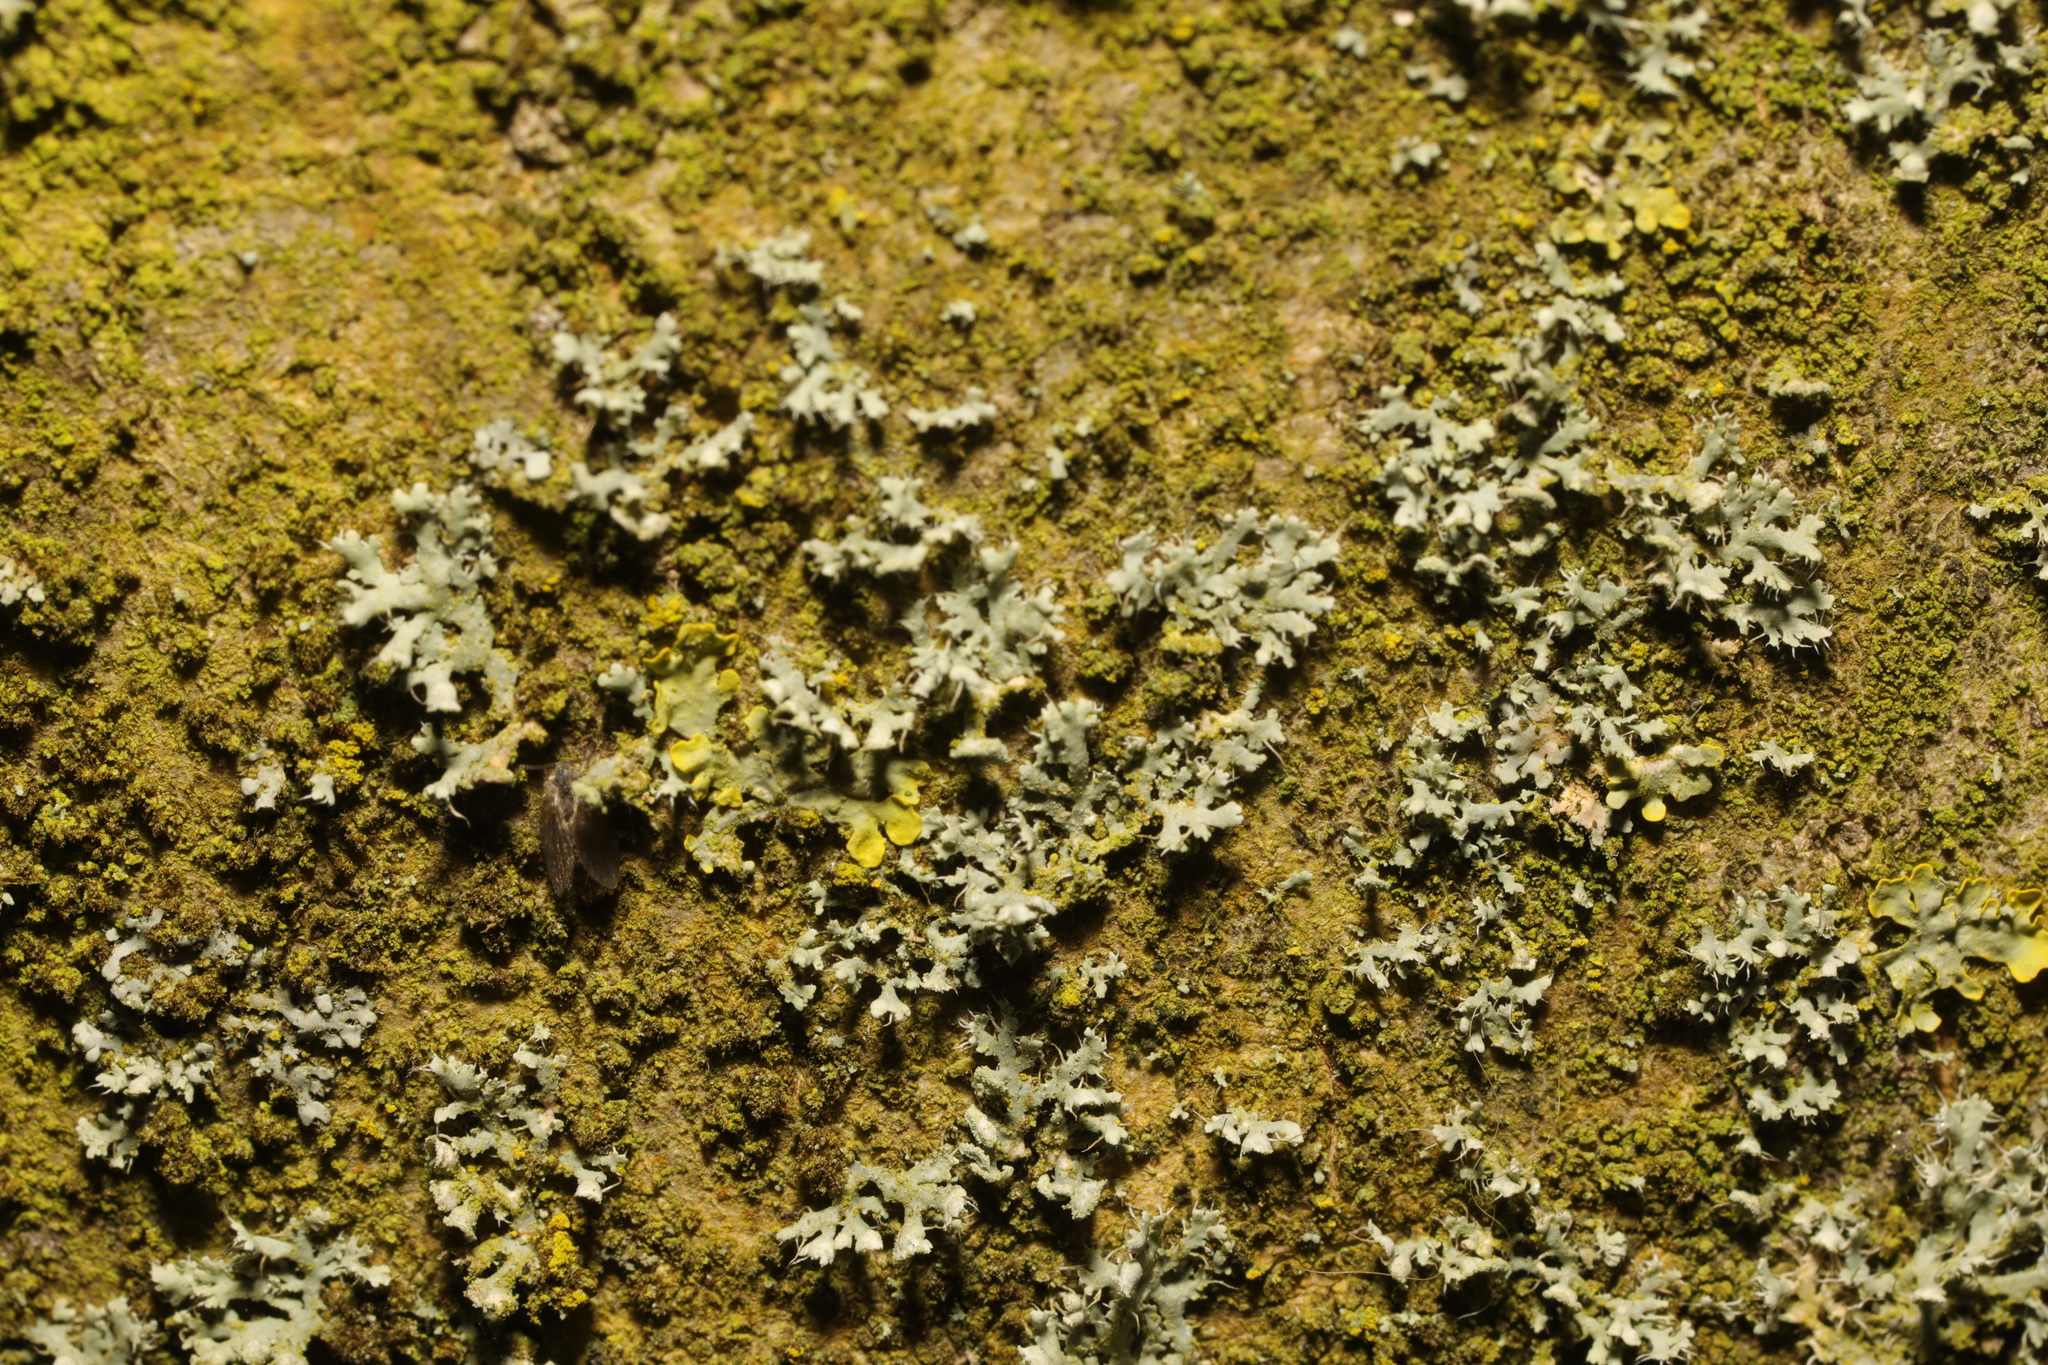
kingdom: Fungi
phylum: Ascomycota
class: Lecanoromycetes
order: Caliciales
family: Physciaceae
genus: Physcia
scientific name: Physcia adscendens
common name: Hooded rosette lichen
